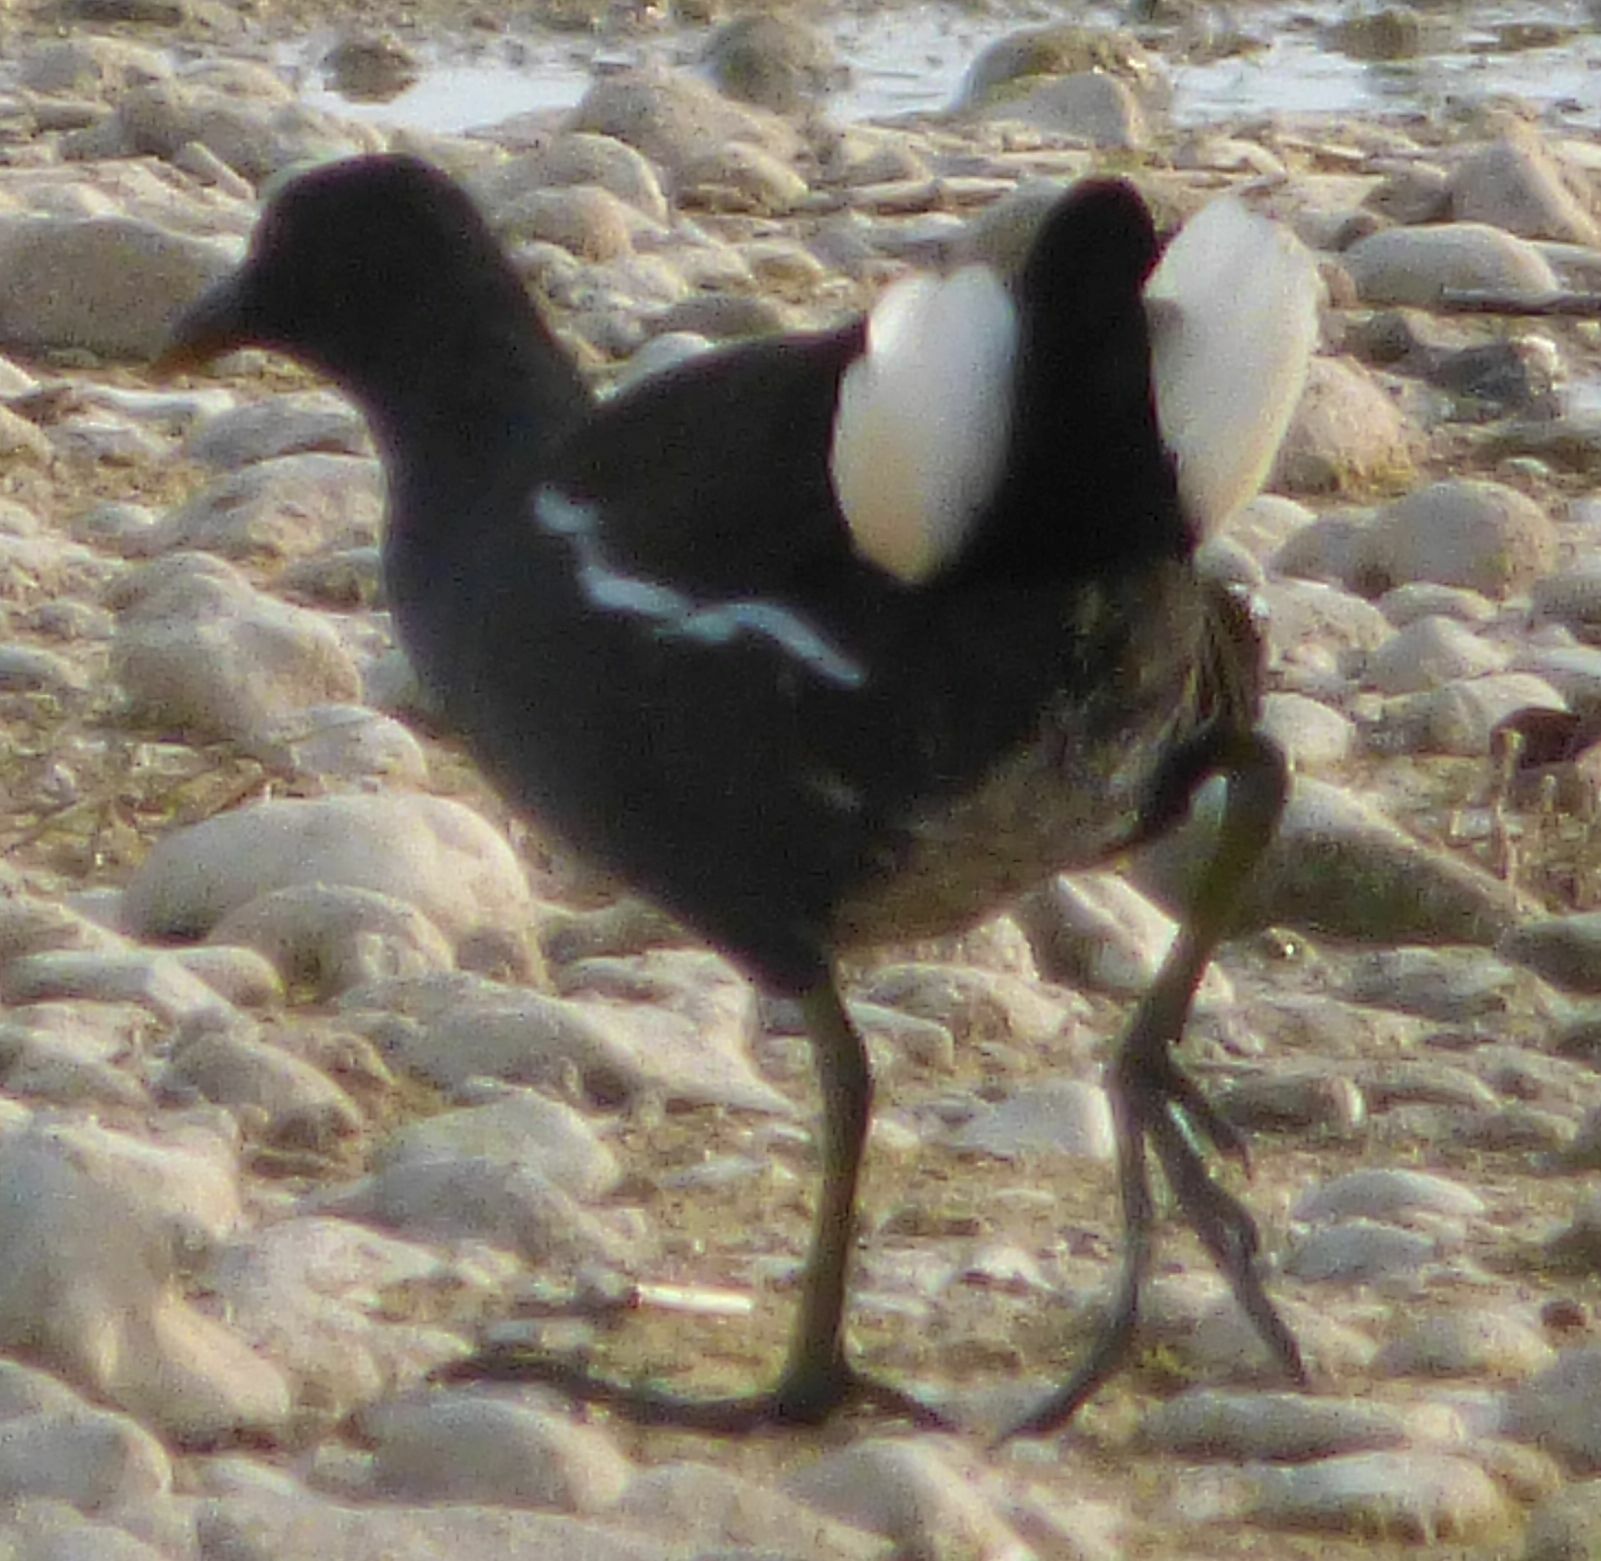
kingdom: Animalia
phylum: Chordata
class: Aves
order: Gruiformes
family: Rallidae
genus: Gallinula
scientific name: Gallinula chloropus
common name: Common moorhen
